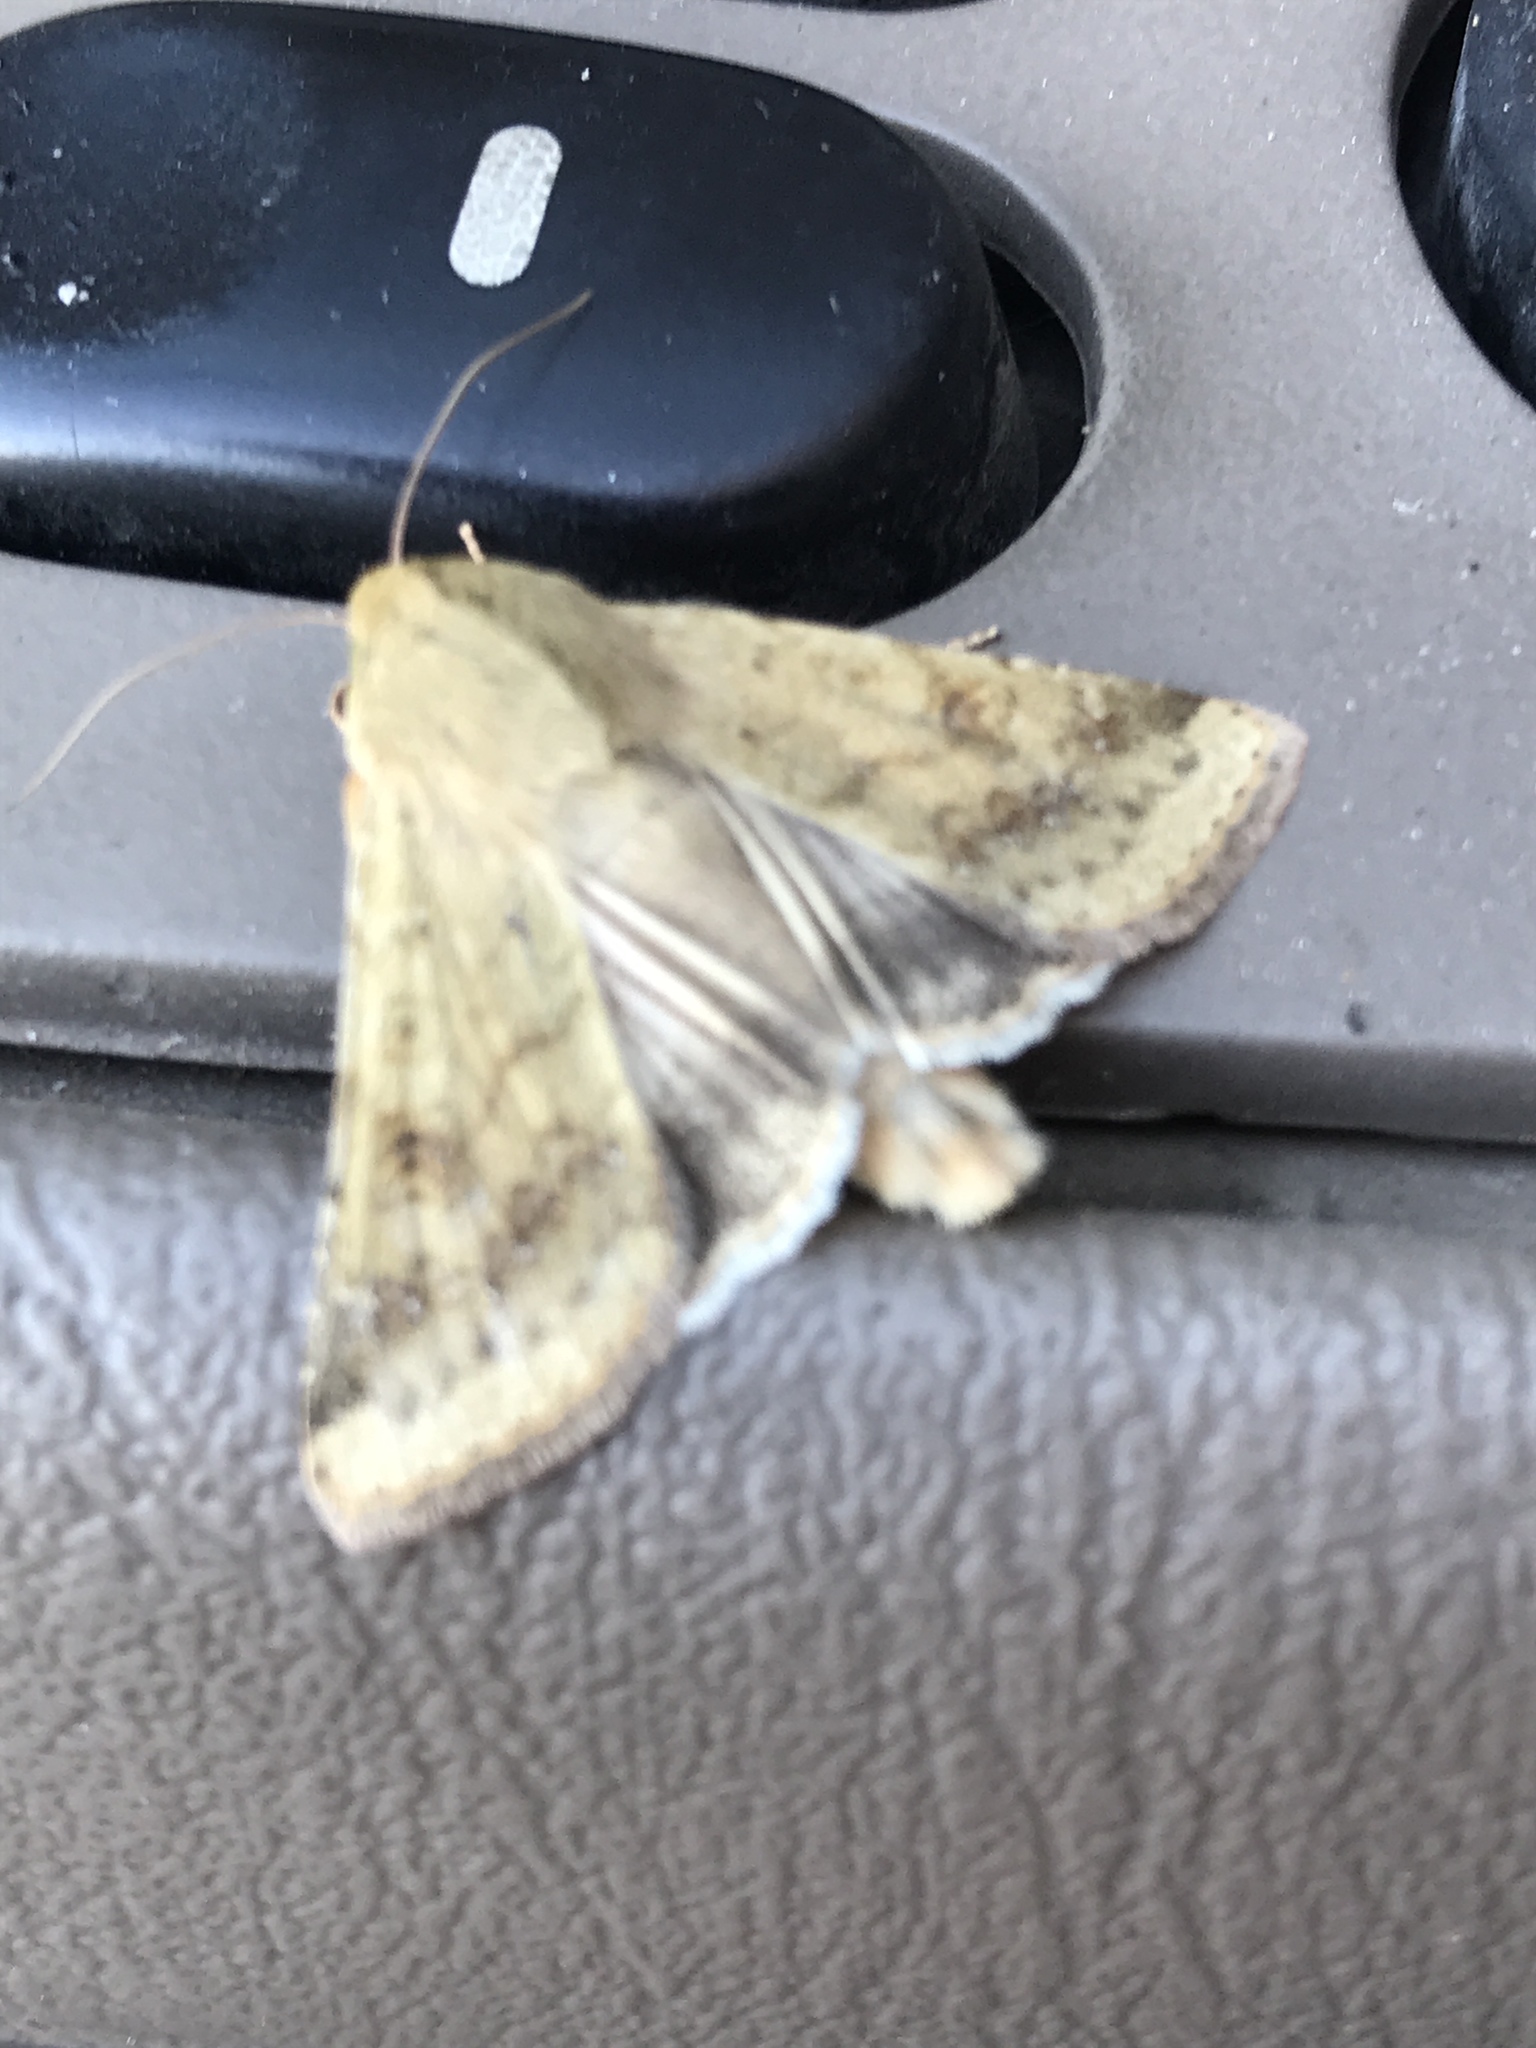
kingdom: Animalia
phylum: Arthropoda
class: Insecta
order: Lepidoptera
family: Noctuidae
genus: Helicoverpa
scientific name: Helicoverpa zea
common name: Bollworm
